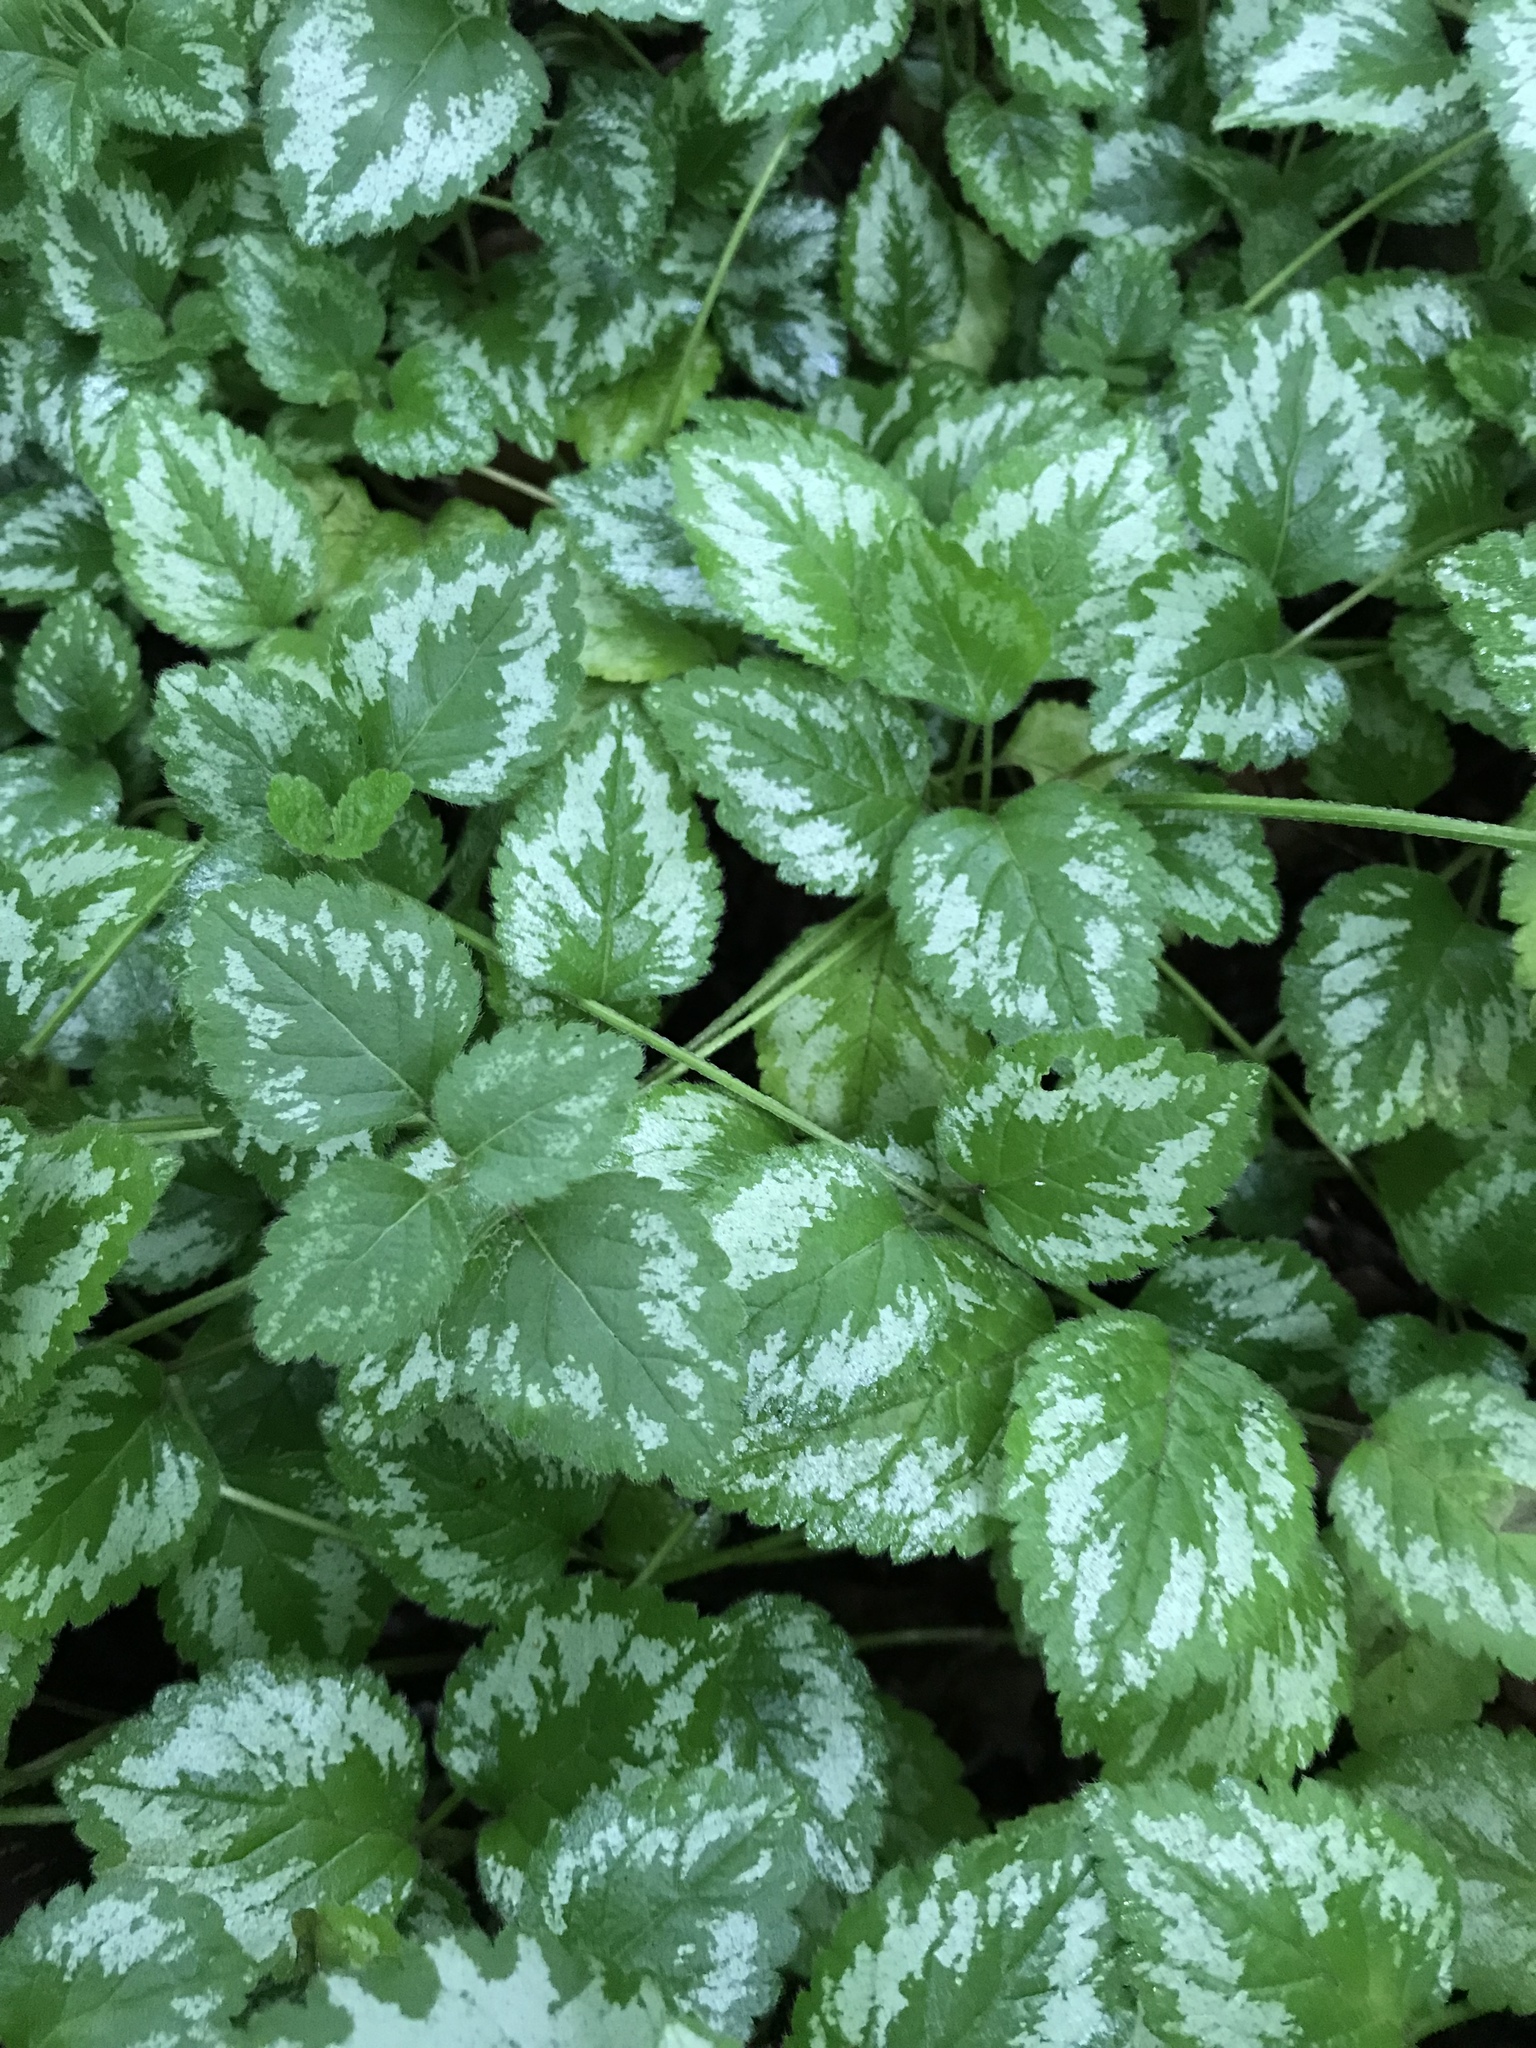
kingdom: Plantae
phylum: Tracheophyta
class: Magnoliopsida
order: Lamiales
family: Lamiaceae
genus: Lamium
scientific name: Lamium galeobdolon
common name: Yellow archangel
